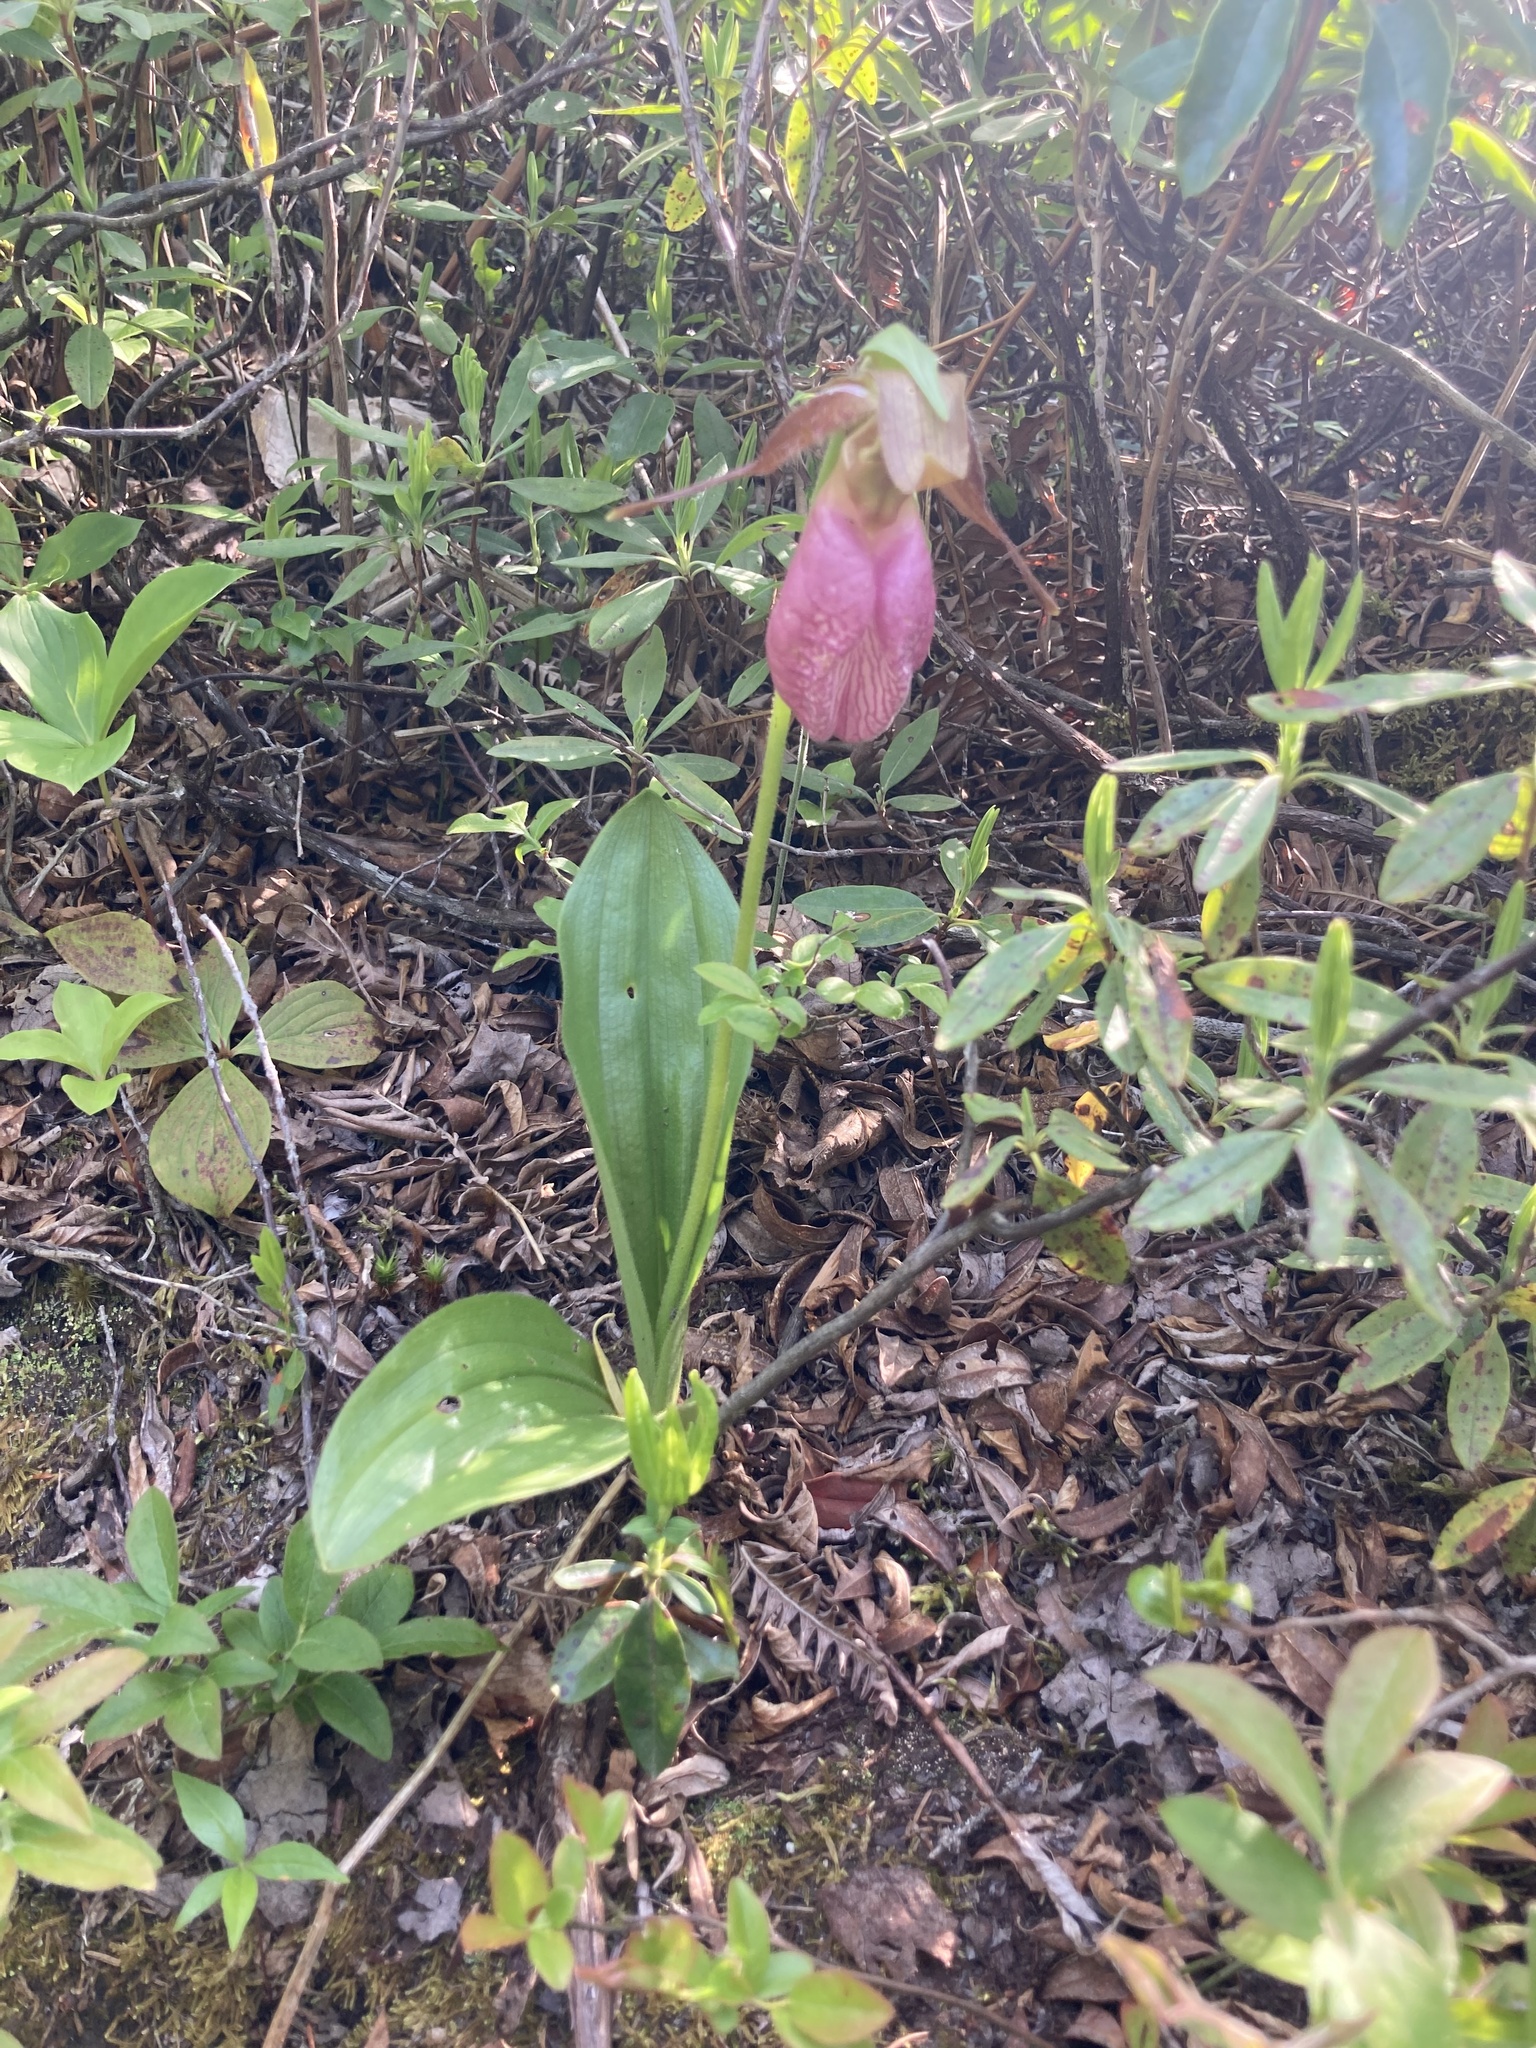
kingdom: Plantae
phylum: Tracheophyta
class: Liliopsida
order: Asparagales
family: Orchidaceae
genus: Cypripedium
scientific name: Cypripedium acaule
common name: Pink lady's-slipper
